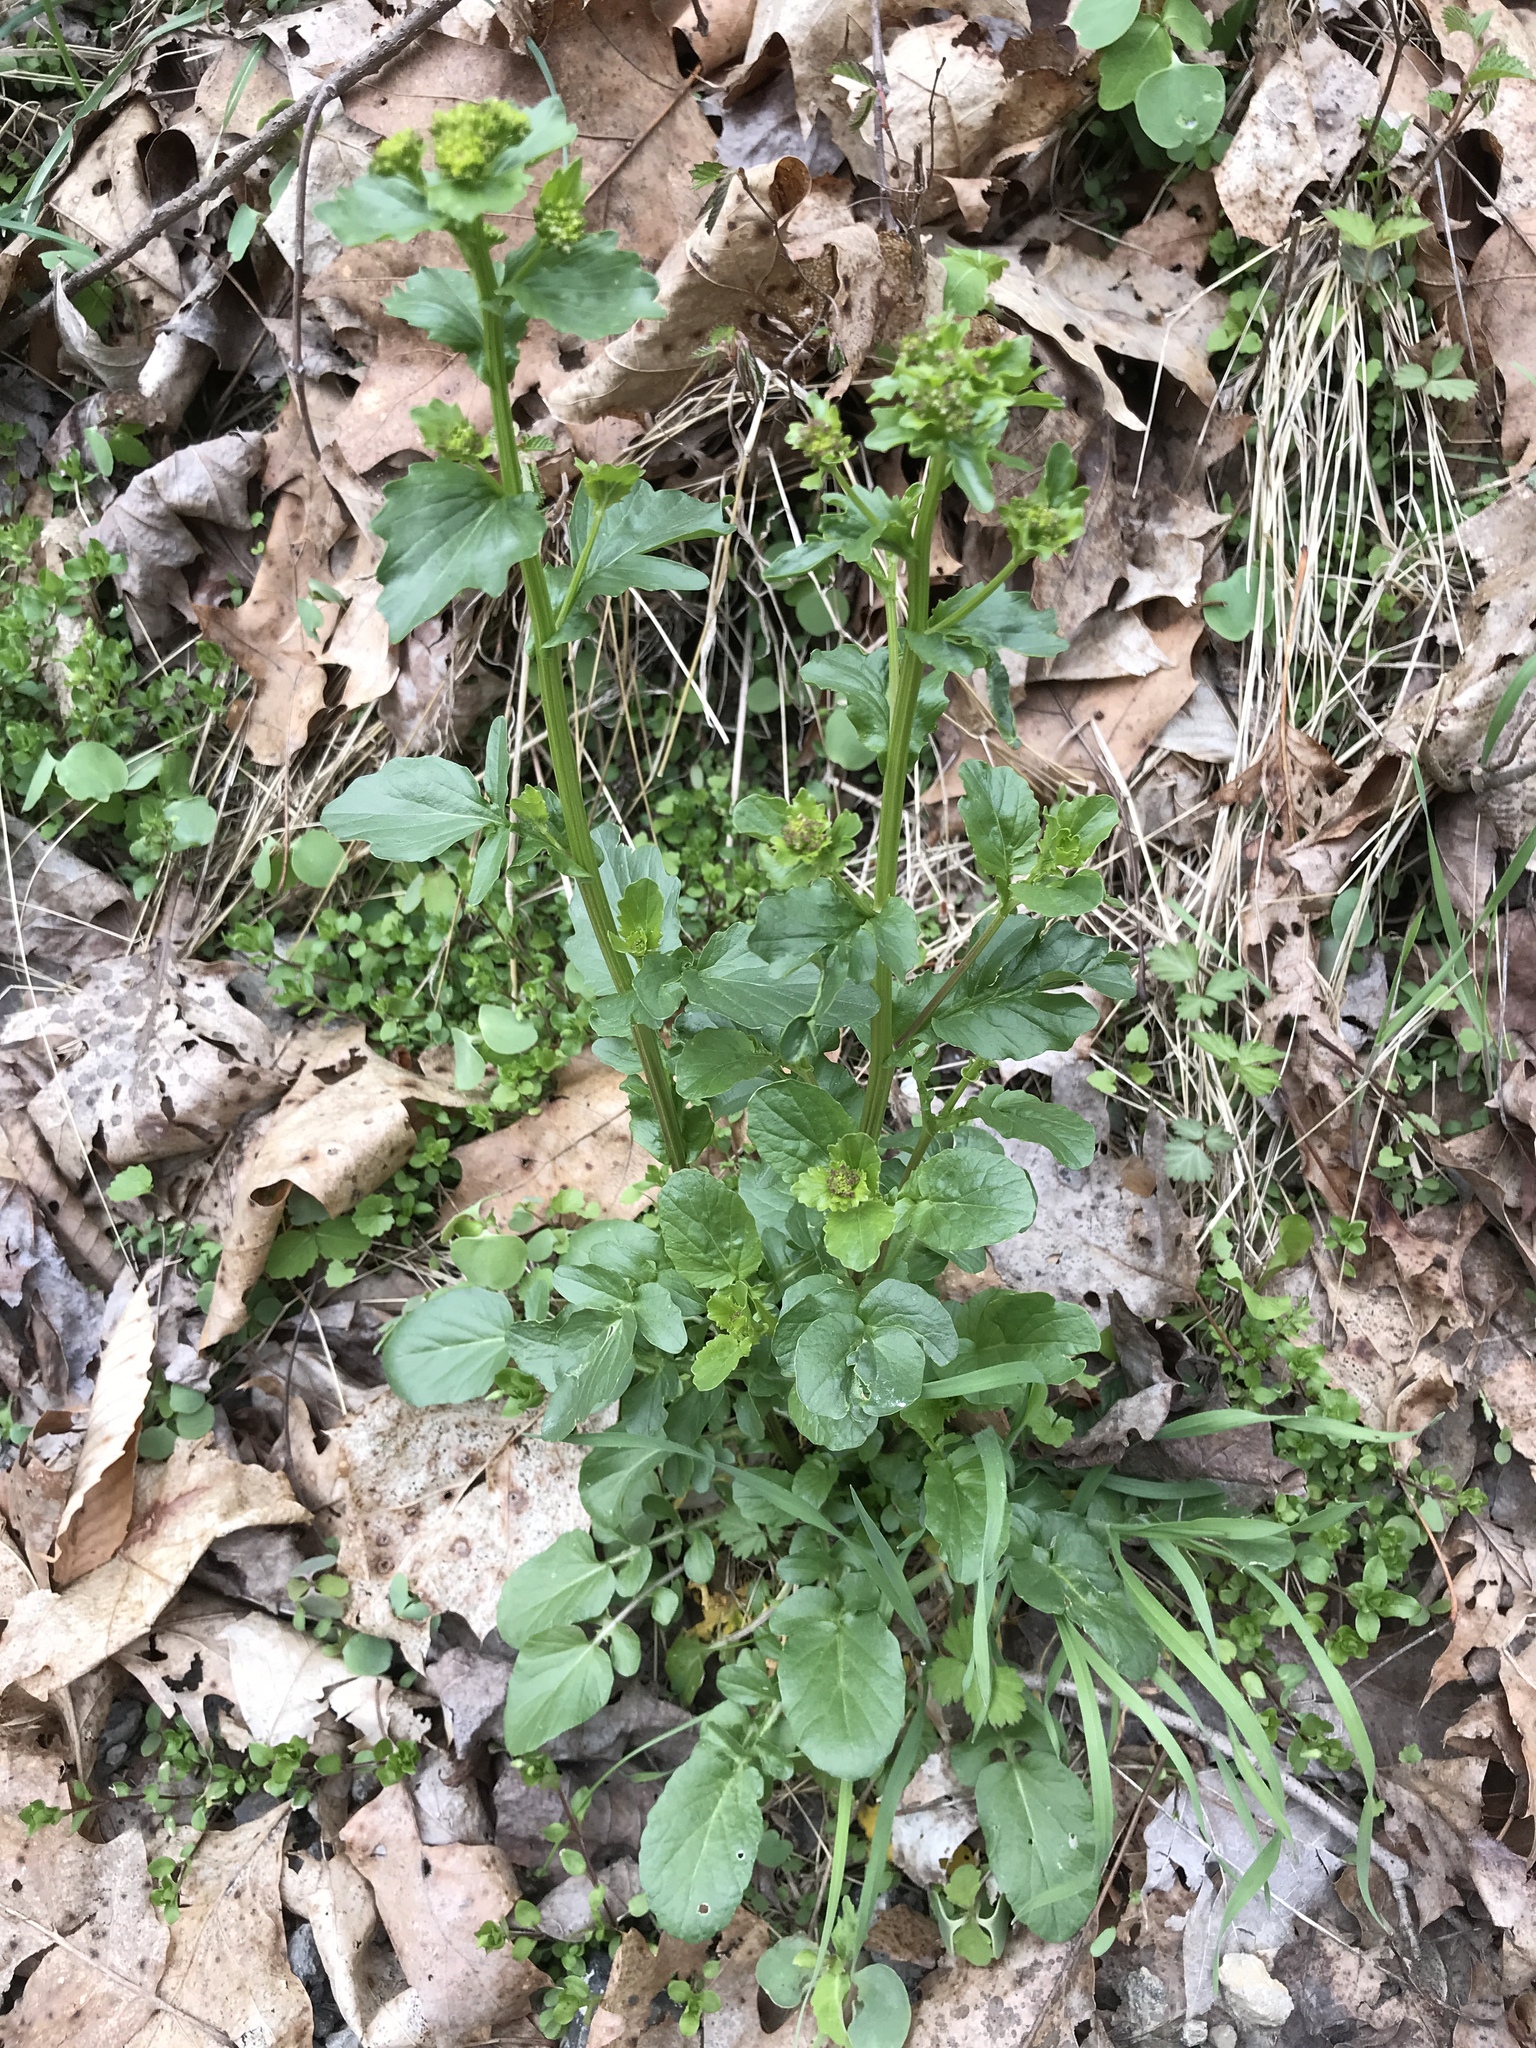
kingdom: Plantae
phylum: Tracheophyta
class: Magnoliopsida
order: Brassicales
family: Brassicaceae
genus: Barbarea
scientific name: Barbarea vulgaris
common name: Cressy-greens
